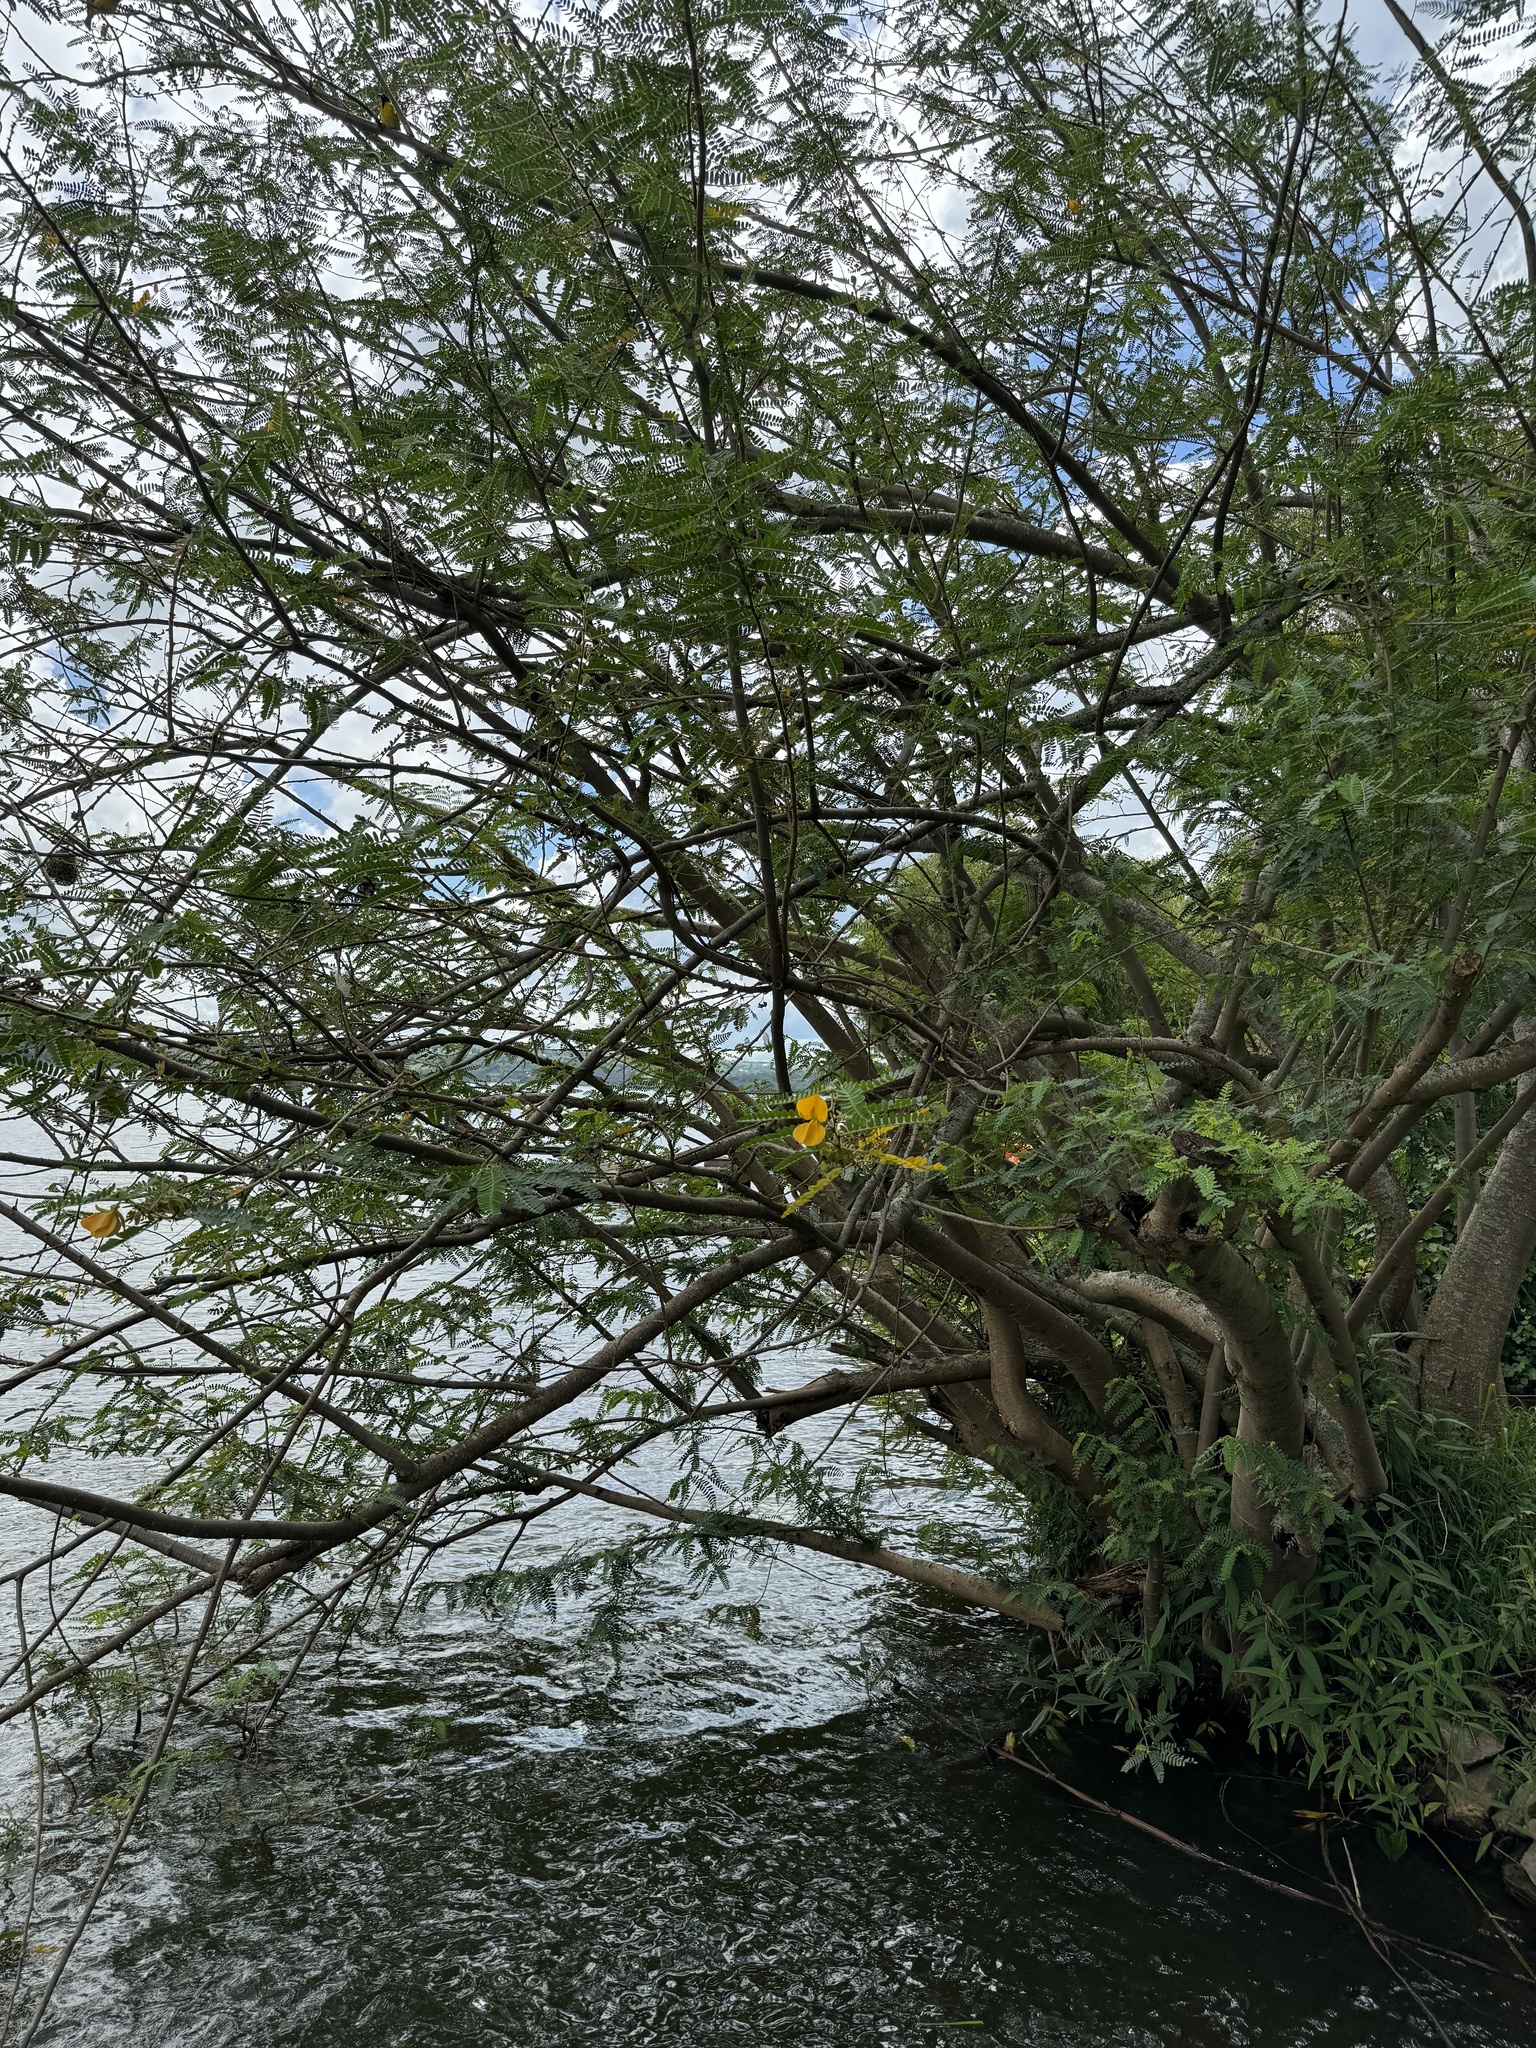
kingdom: Plantae
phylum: Tracheophyta
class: Magnoliopsida
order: Fabales
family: Fabaceae
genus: Senna
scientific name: Senna didymobotrya
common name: African senna
